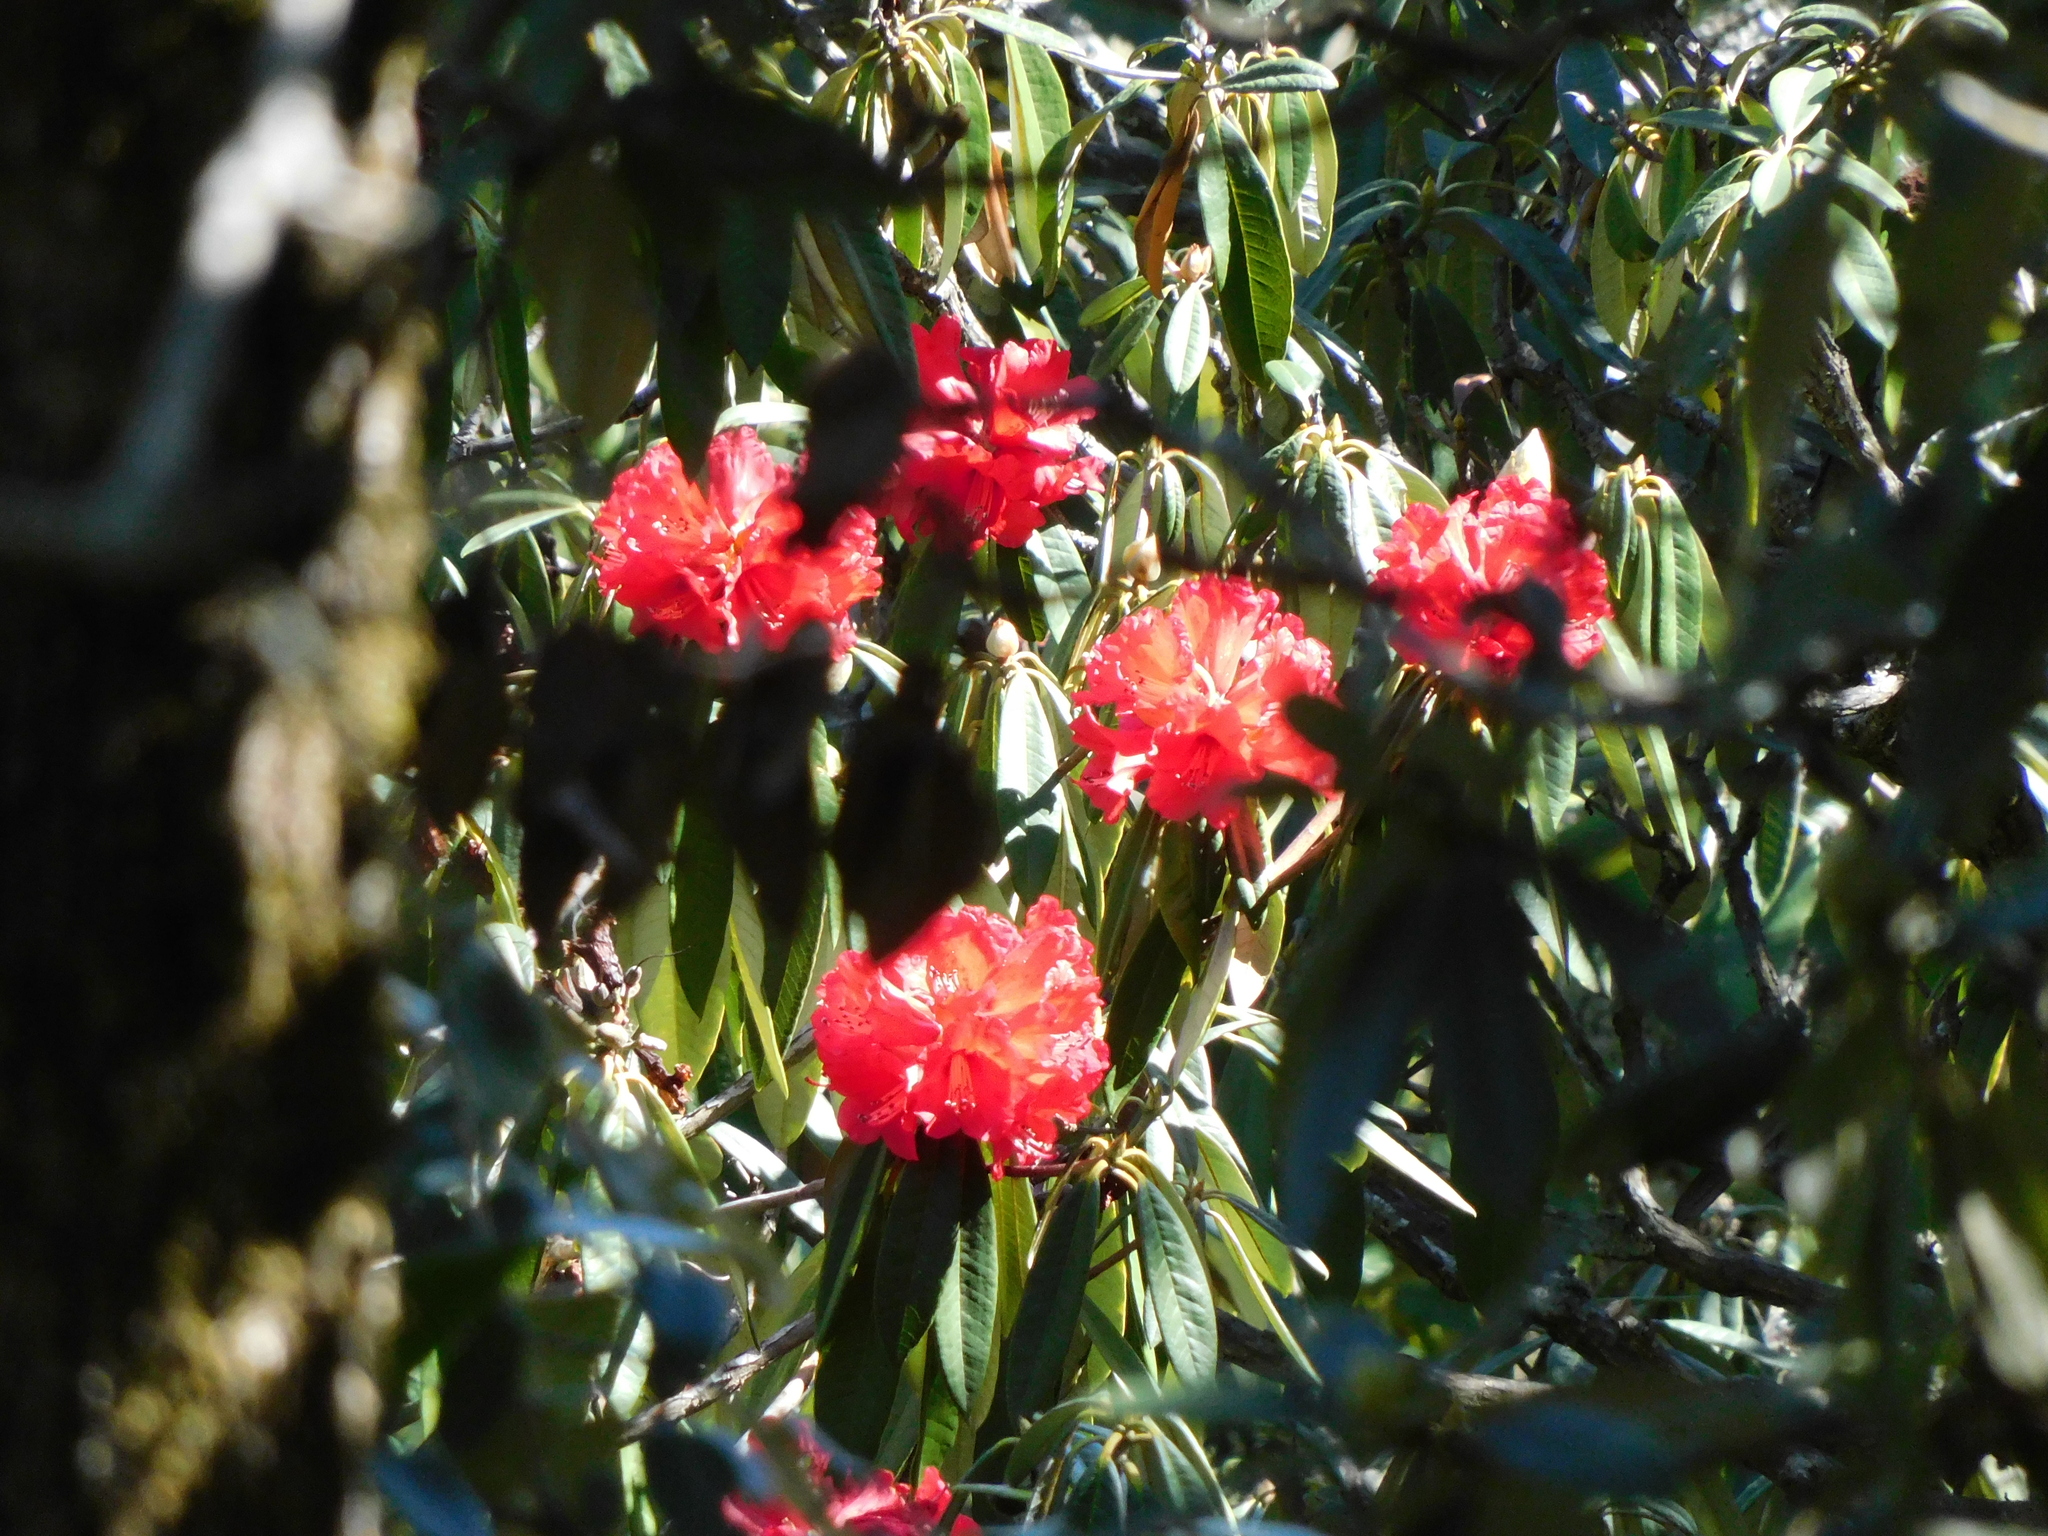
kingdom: Plantae
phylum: Tracheophyta
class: Magnoliopsida
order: Ericales
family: Ericaceae
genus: Rhododendron
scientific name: Rhododendron arboreum
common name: Tree rhododendron
